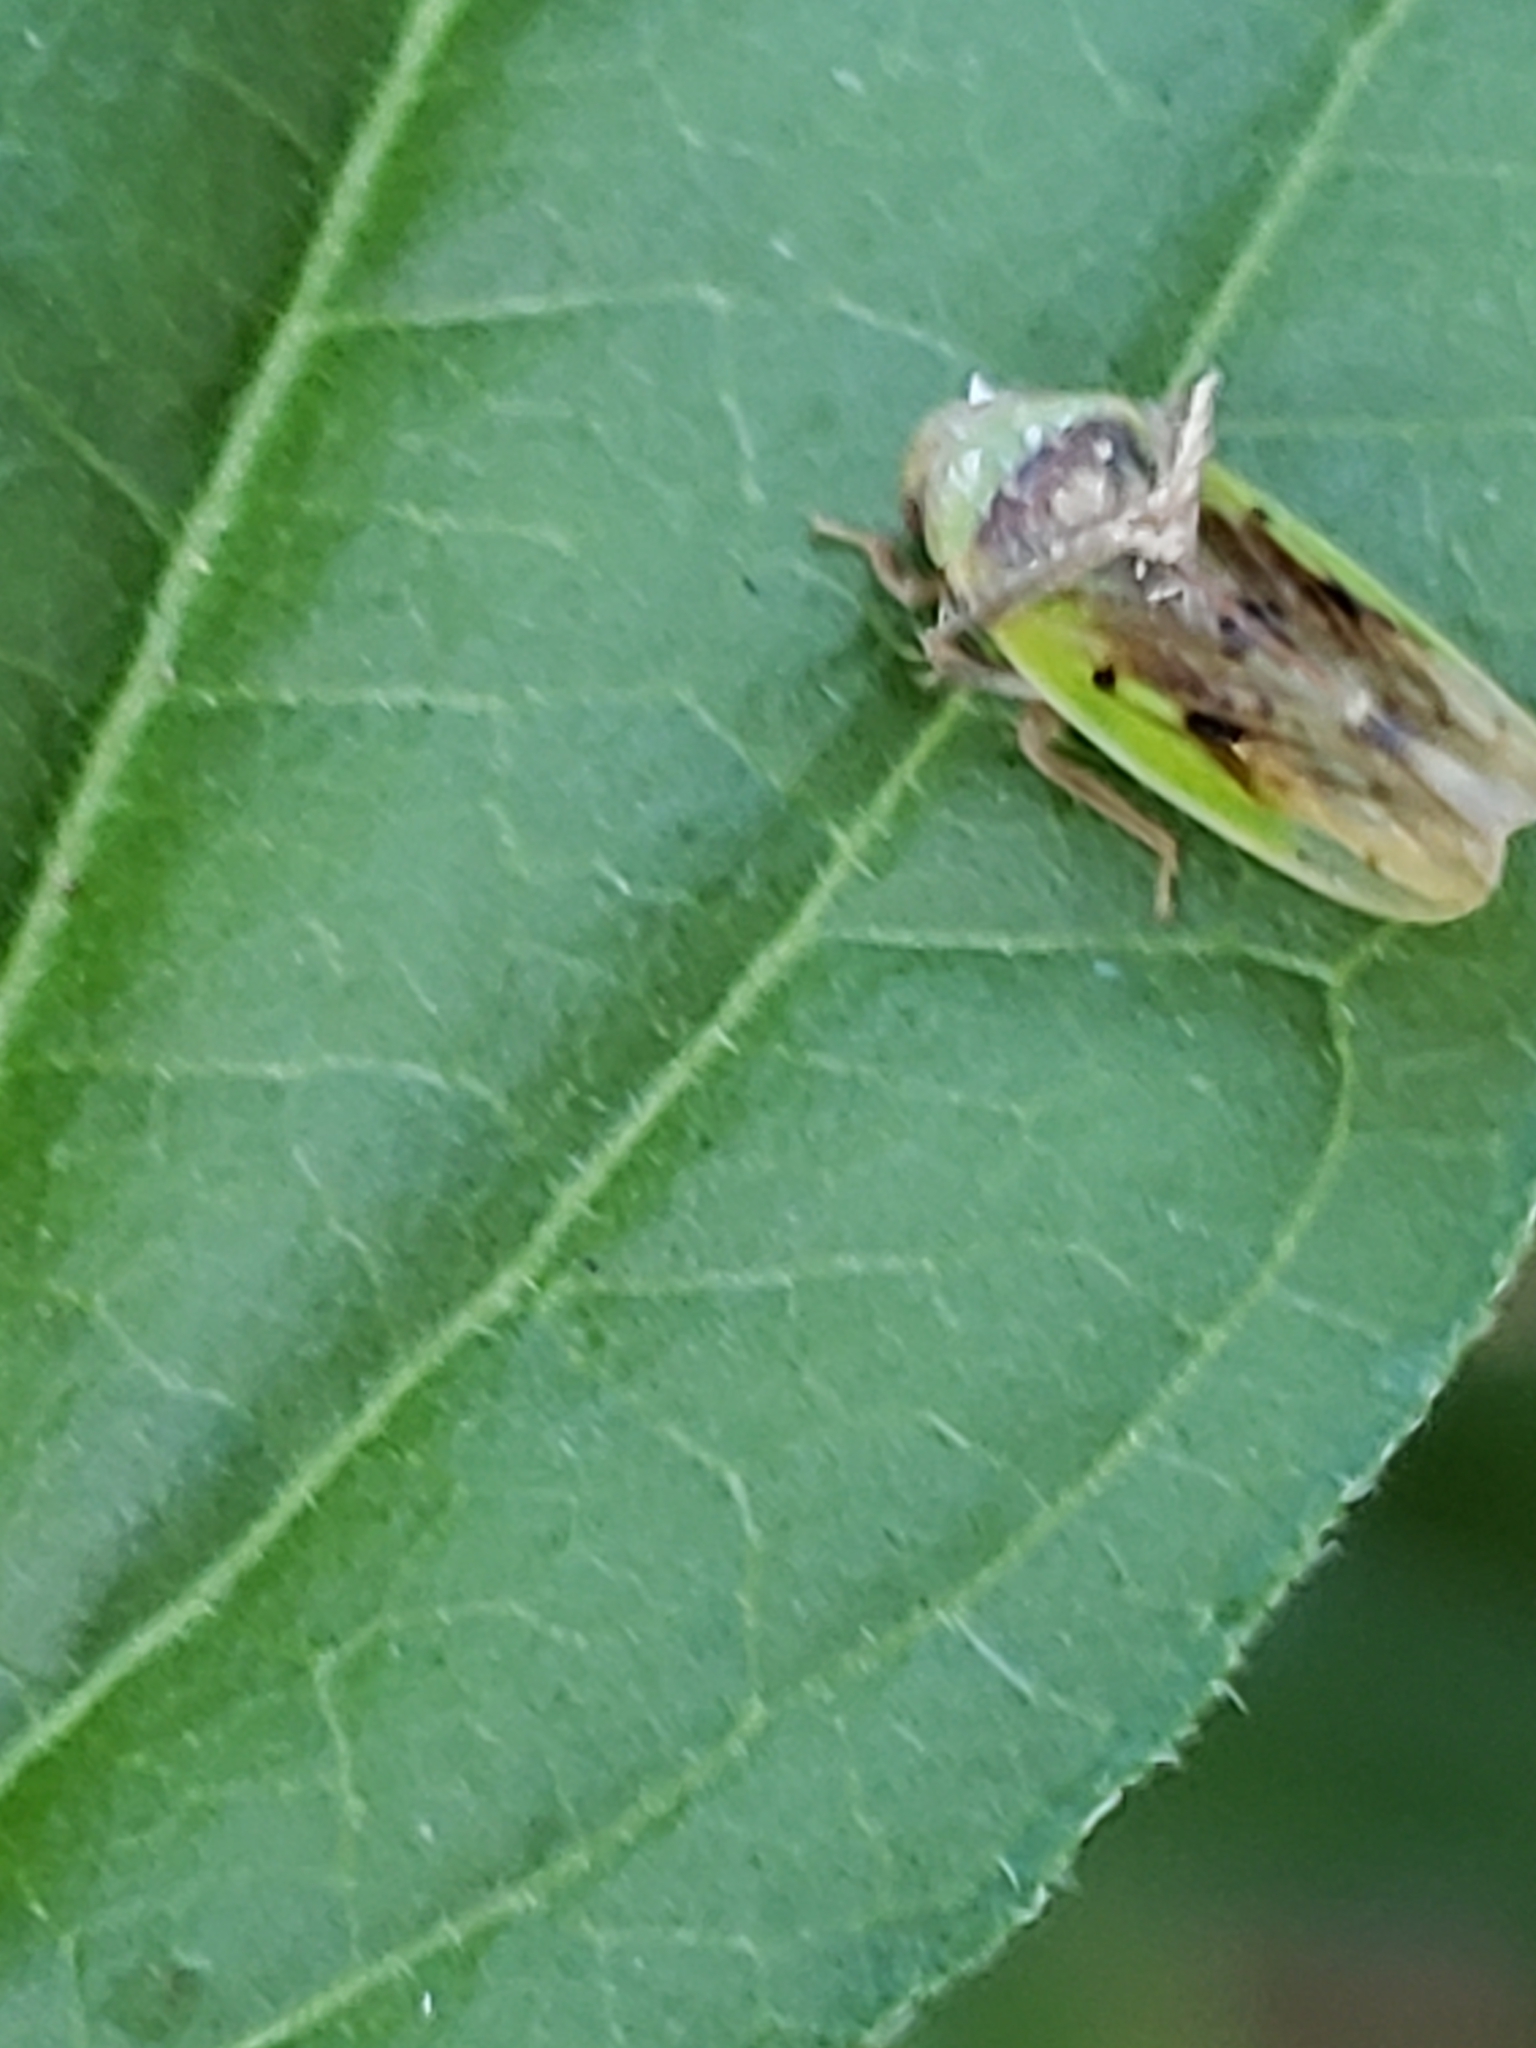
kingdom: Animalia
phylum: Arthropoda
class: Insecta
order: Hemiptera
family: Cicadellidae
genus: Ponana
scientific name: Ponana pectoralis
